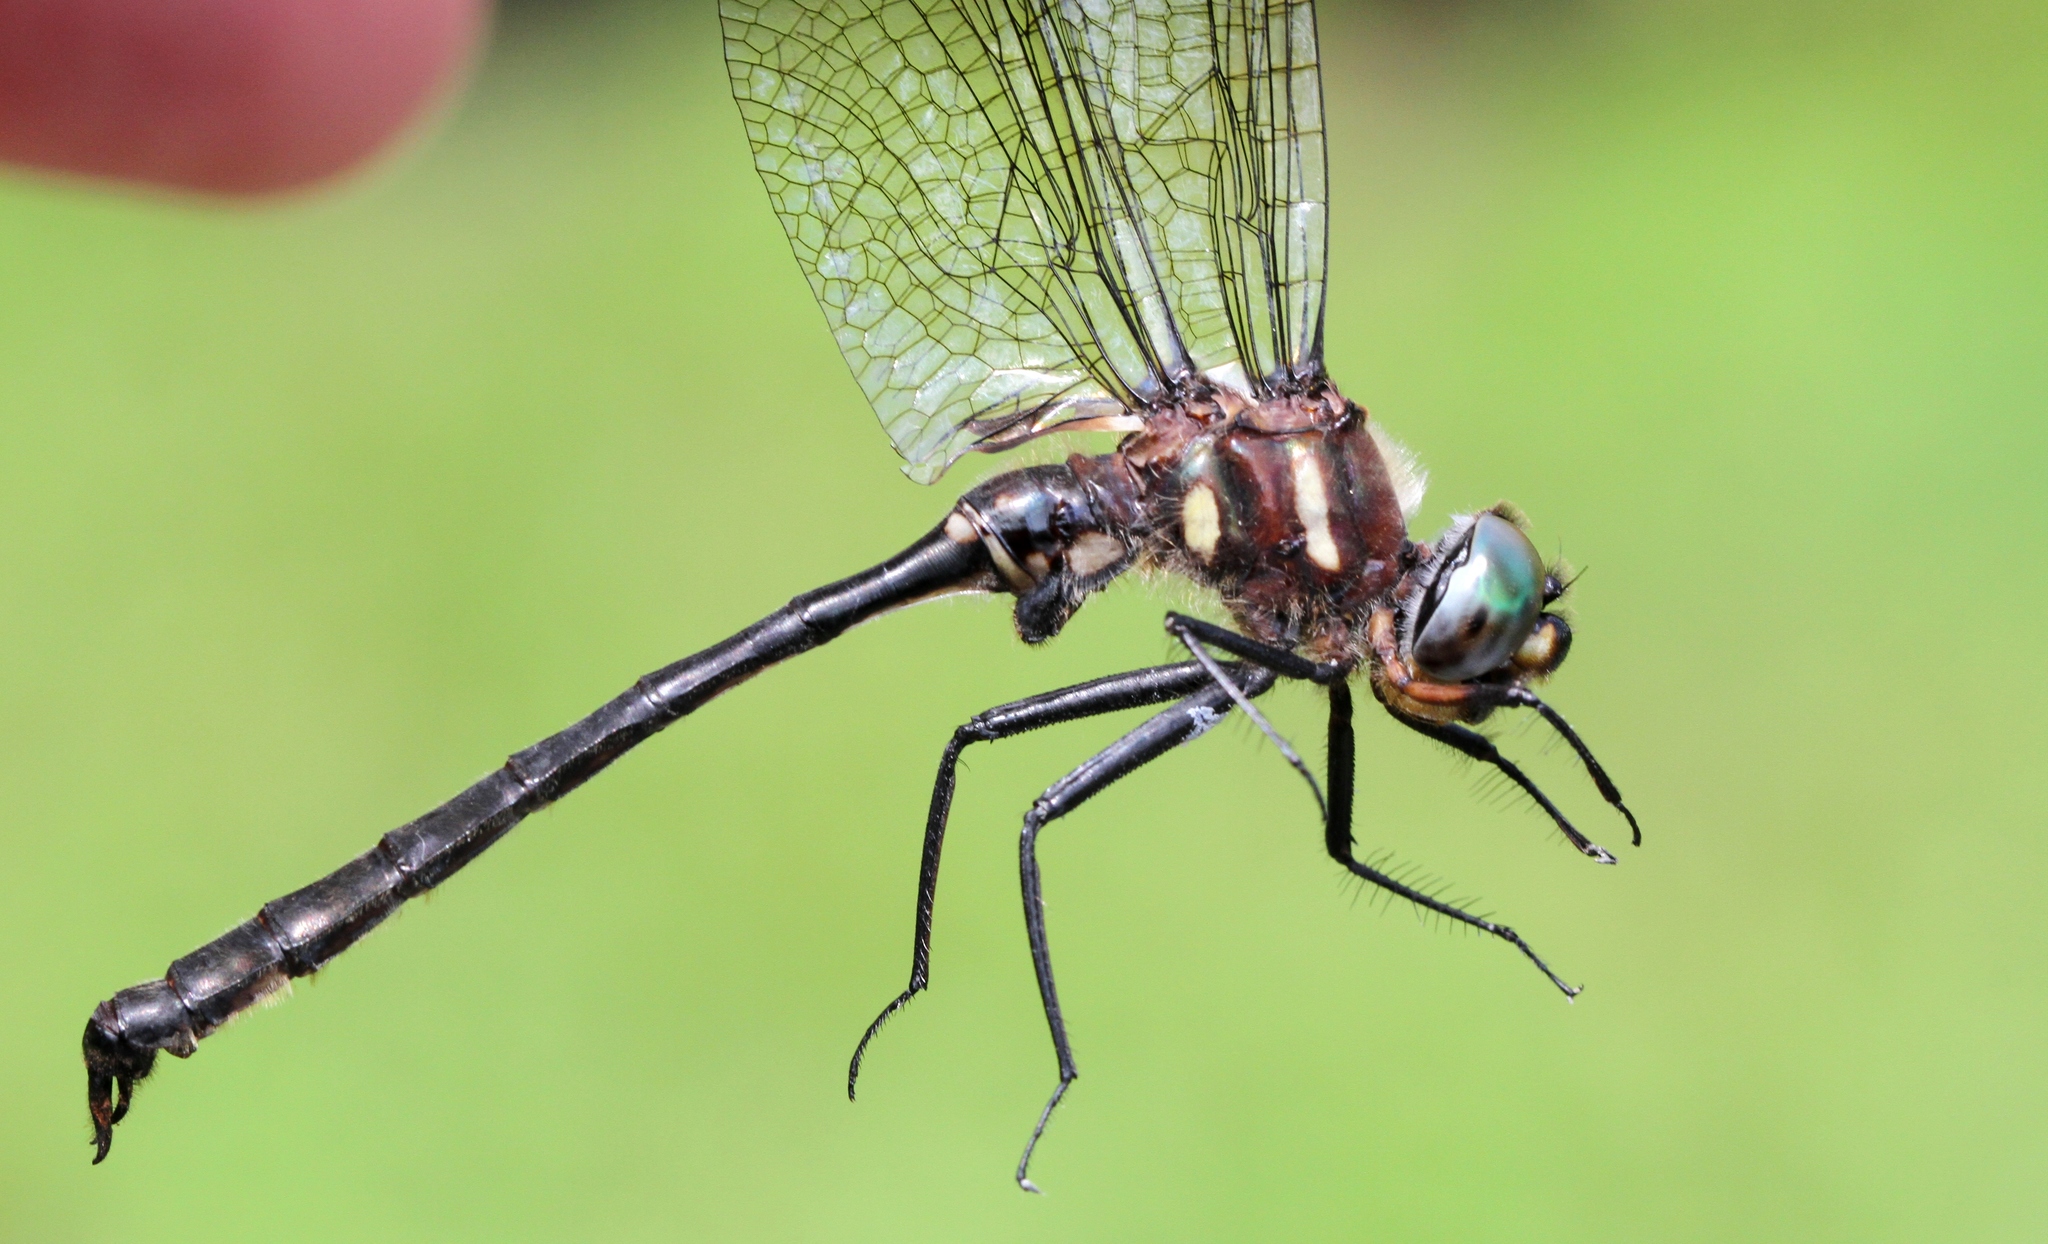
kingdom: Animalia
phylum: Arthropoda
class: Insecta
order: Odonata
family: Corduliidae
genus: Somatochlora
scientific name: Somatochlora elongata
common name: Ski-tipped emerald
